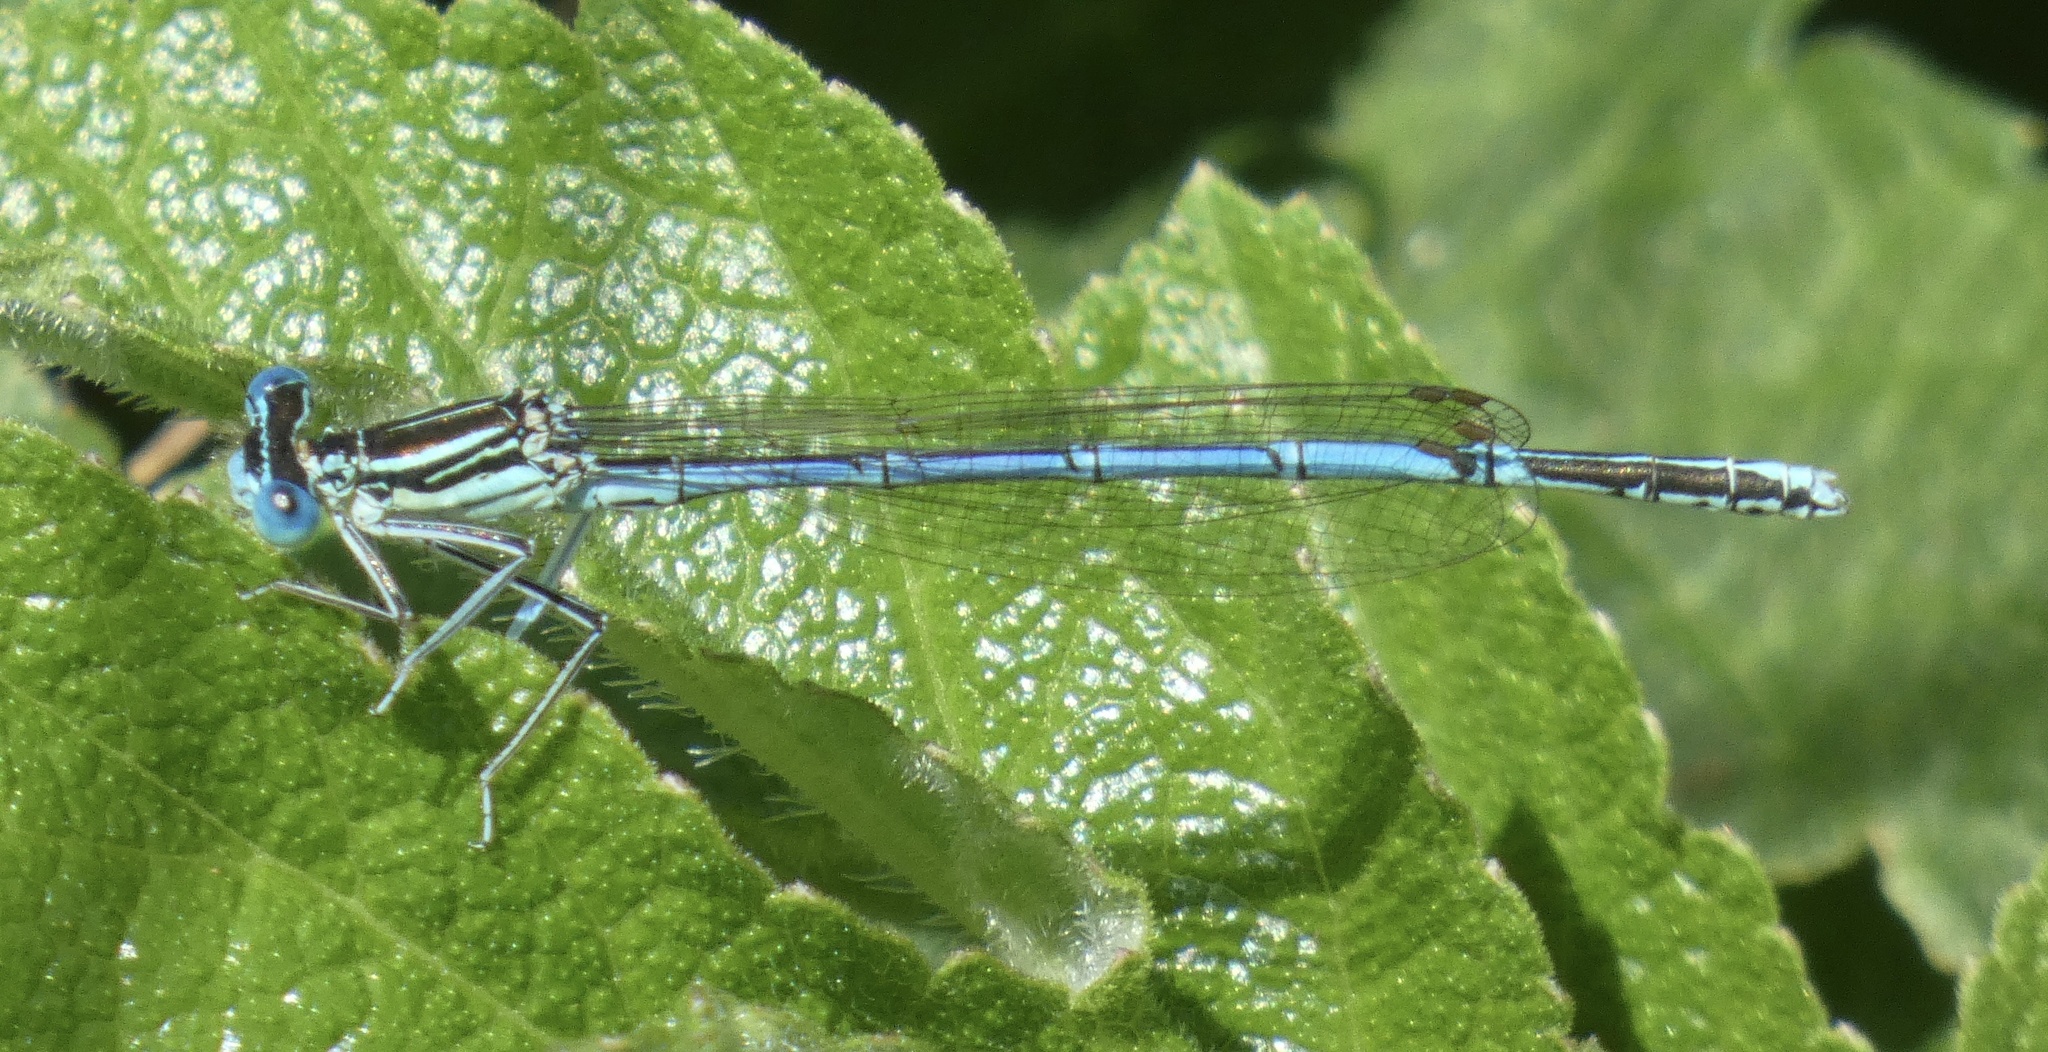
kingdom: Animalia
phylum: Arthropoda
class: Insecta
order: Odonata
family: Platycnemididae
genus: Platycnemis
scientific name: Platycnemis pennipes
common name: White-legged damselfly
